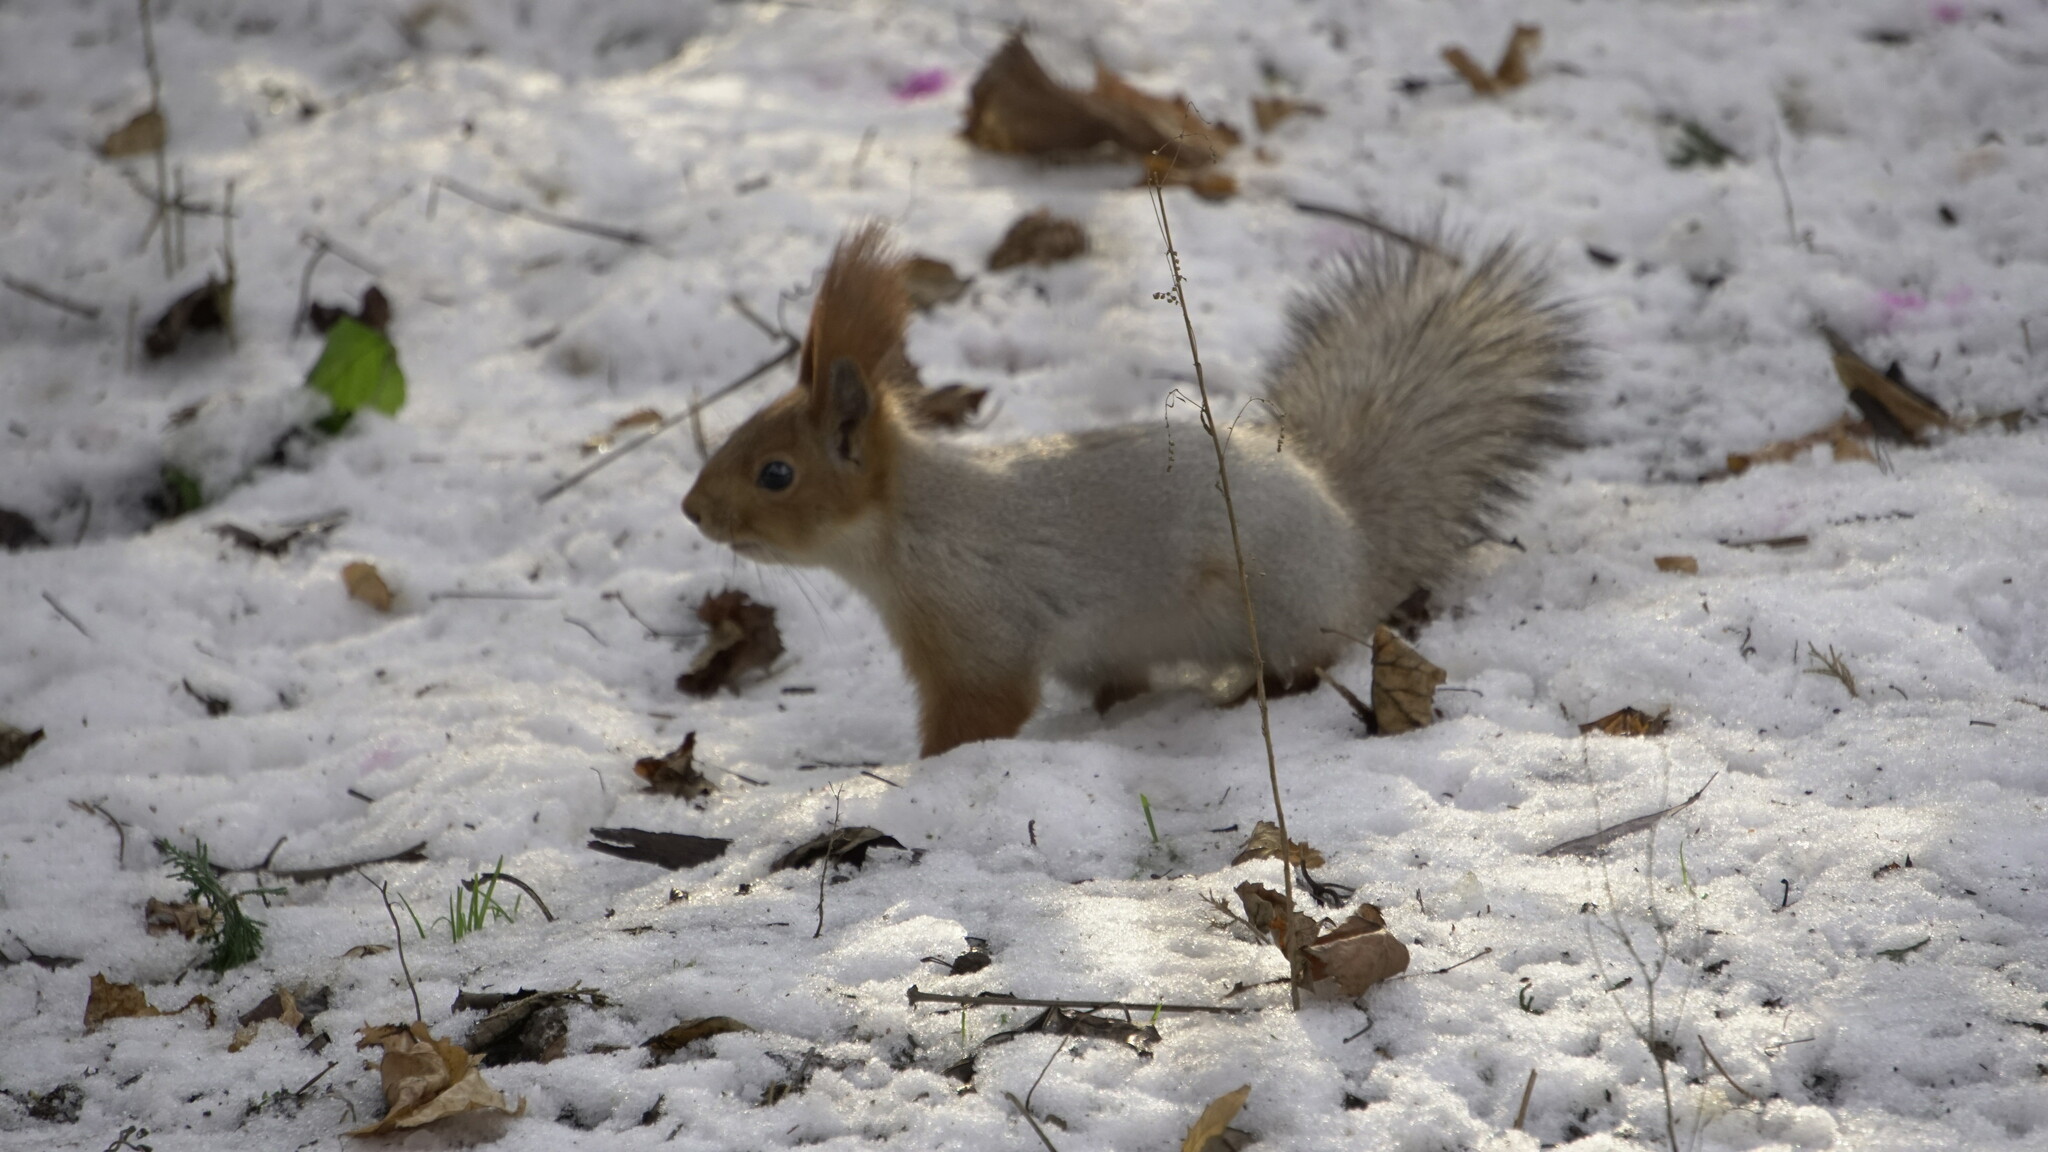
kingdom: Animalia
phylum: Chordata
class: Mammalia
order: Rodentia
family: Sciuridae
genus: Sciurus
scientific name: Sciurus vulgaris
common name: Eurasian red squirrel
